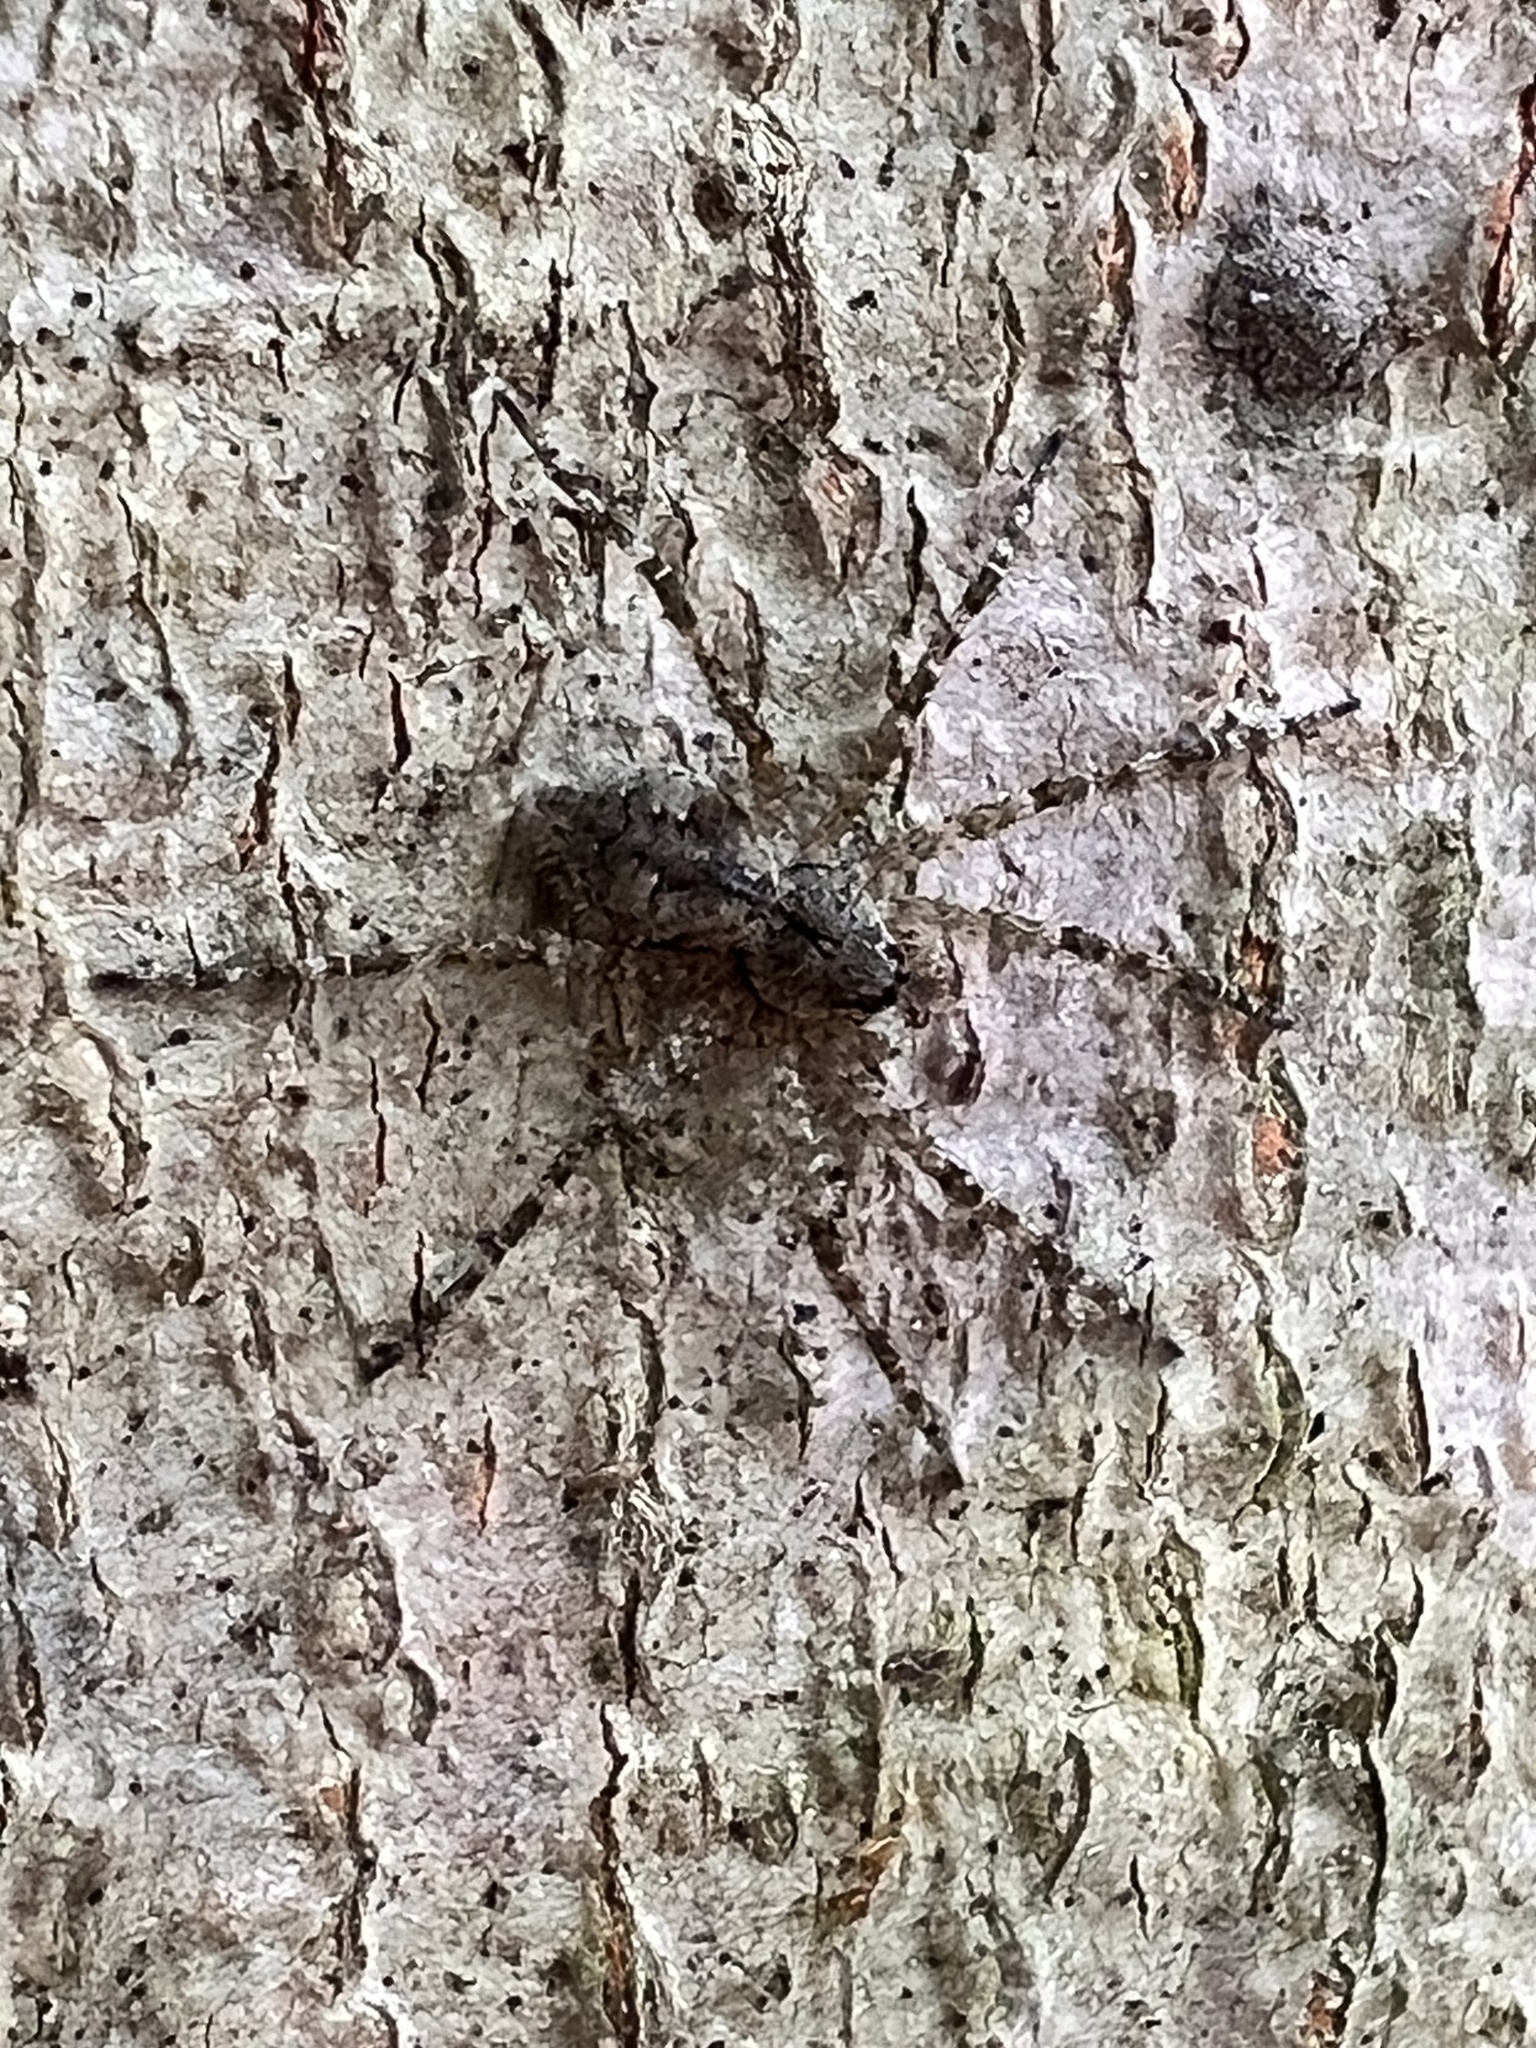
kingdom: Animalia
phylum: Arthropoda
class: Arachnida
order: Araneae
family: Pisauridae
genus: Dolomedes
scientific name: Dolomedes albineus
